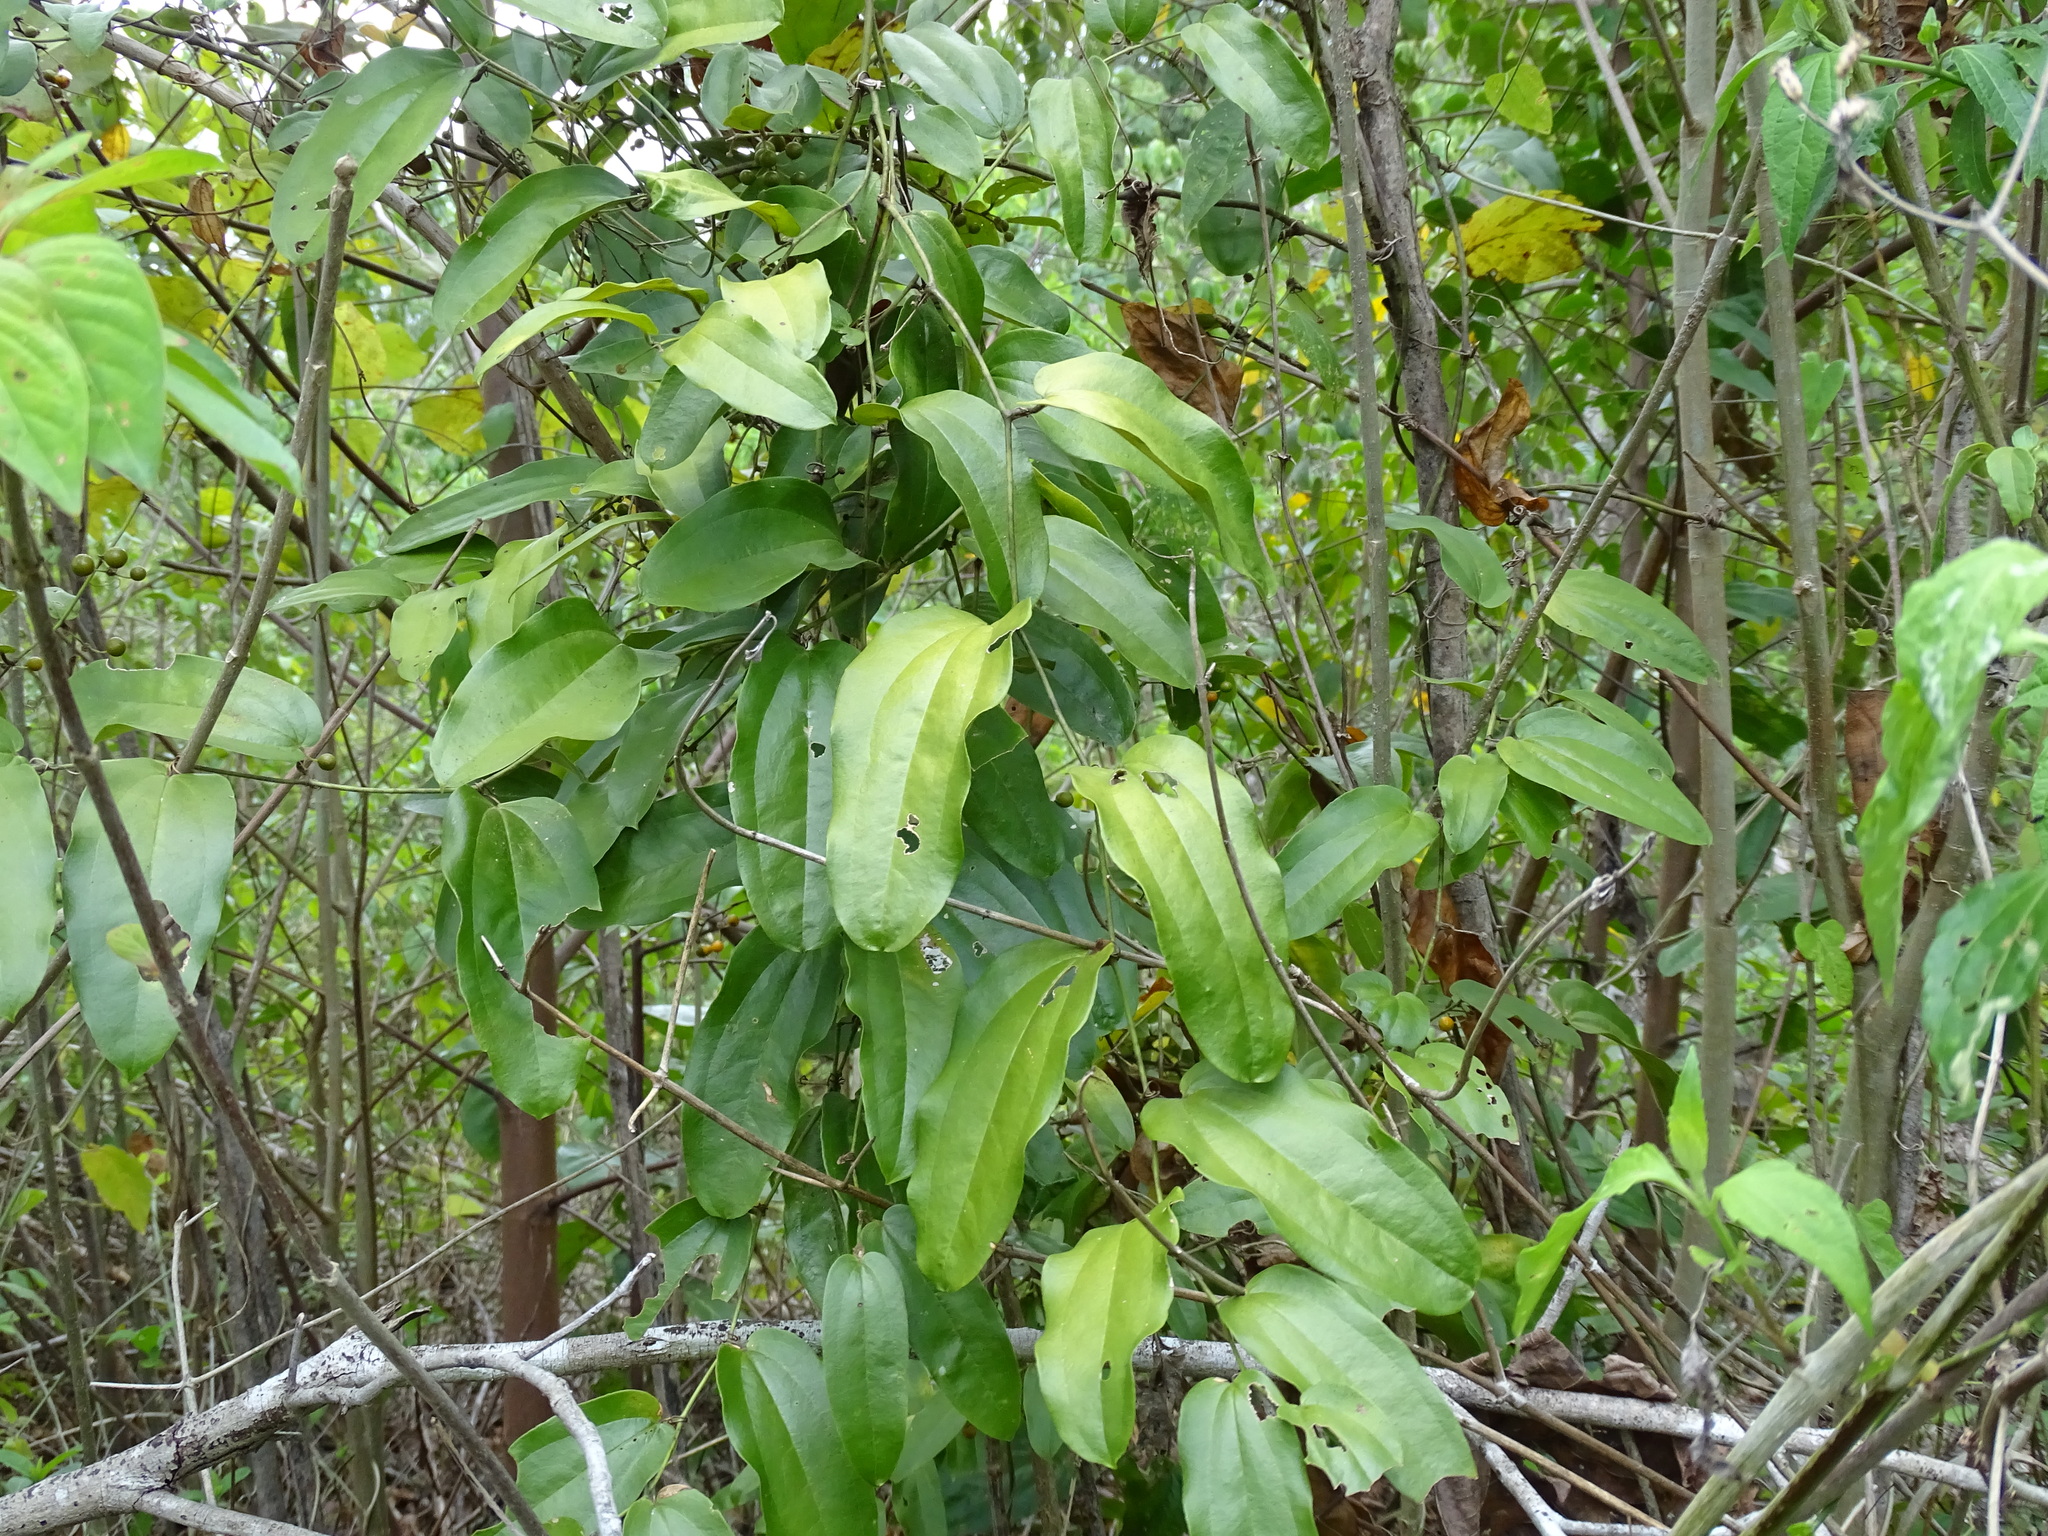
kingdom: Plantae
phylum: Tracheophyta
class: Liliopsida
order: Liliales
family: Smilacaceae
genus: Smilax
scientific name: Smilax mollis
